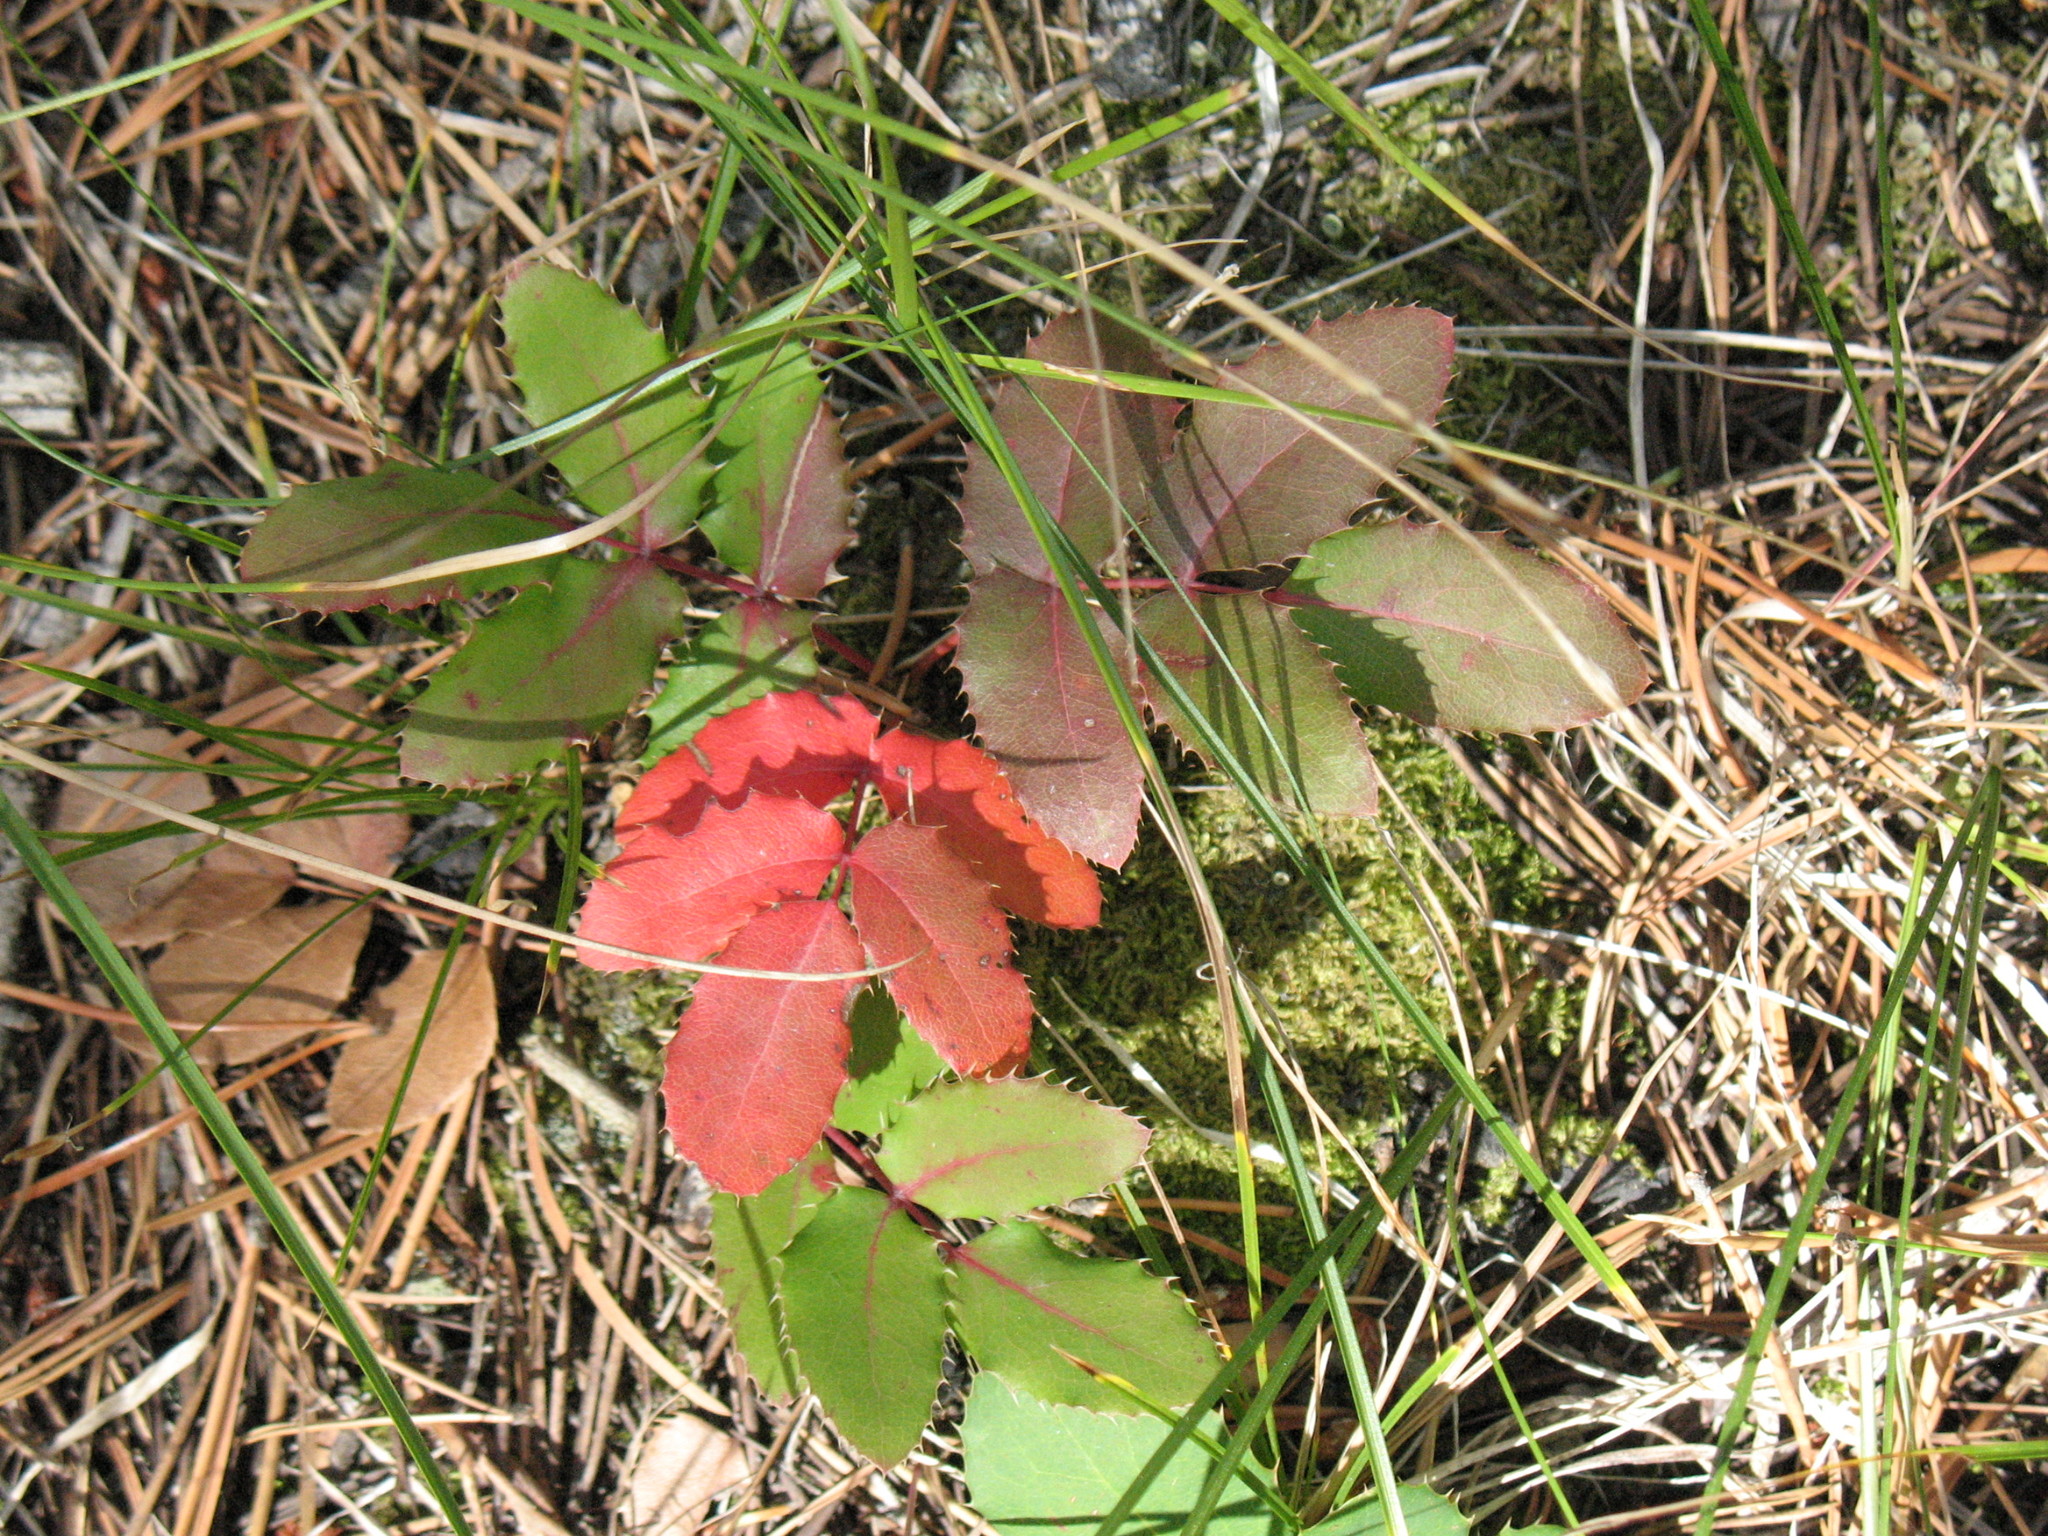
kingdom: Plantae
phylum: Tracheophyta
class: Magnoliopsida
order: Ranunculales
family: Berberidaceae
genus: Mahonia
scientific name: Mahonia repens
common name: Creeping oregon-grape
